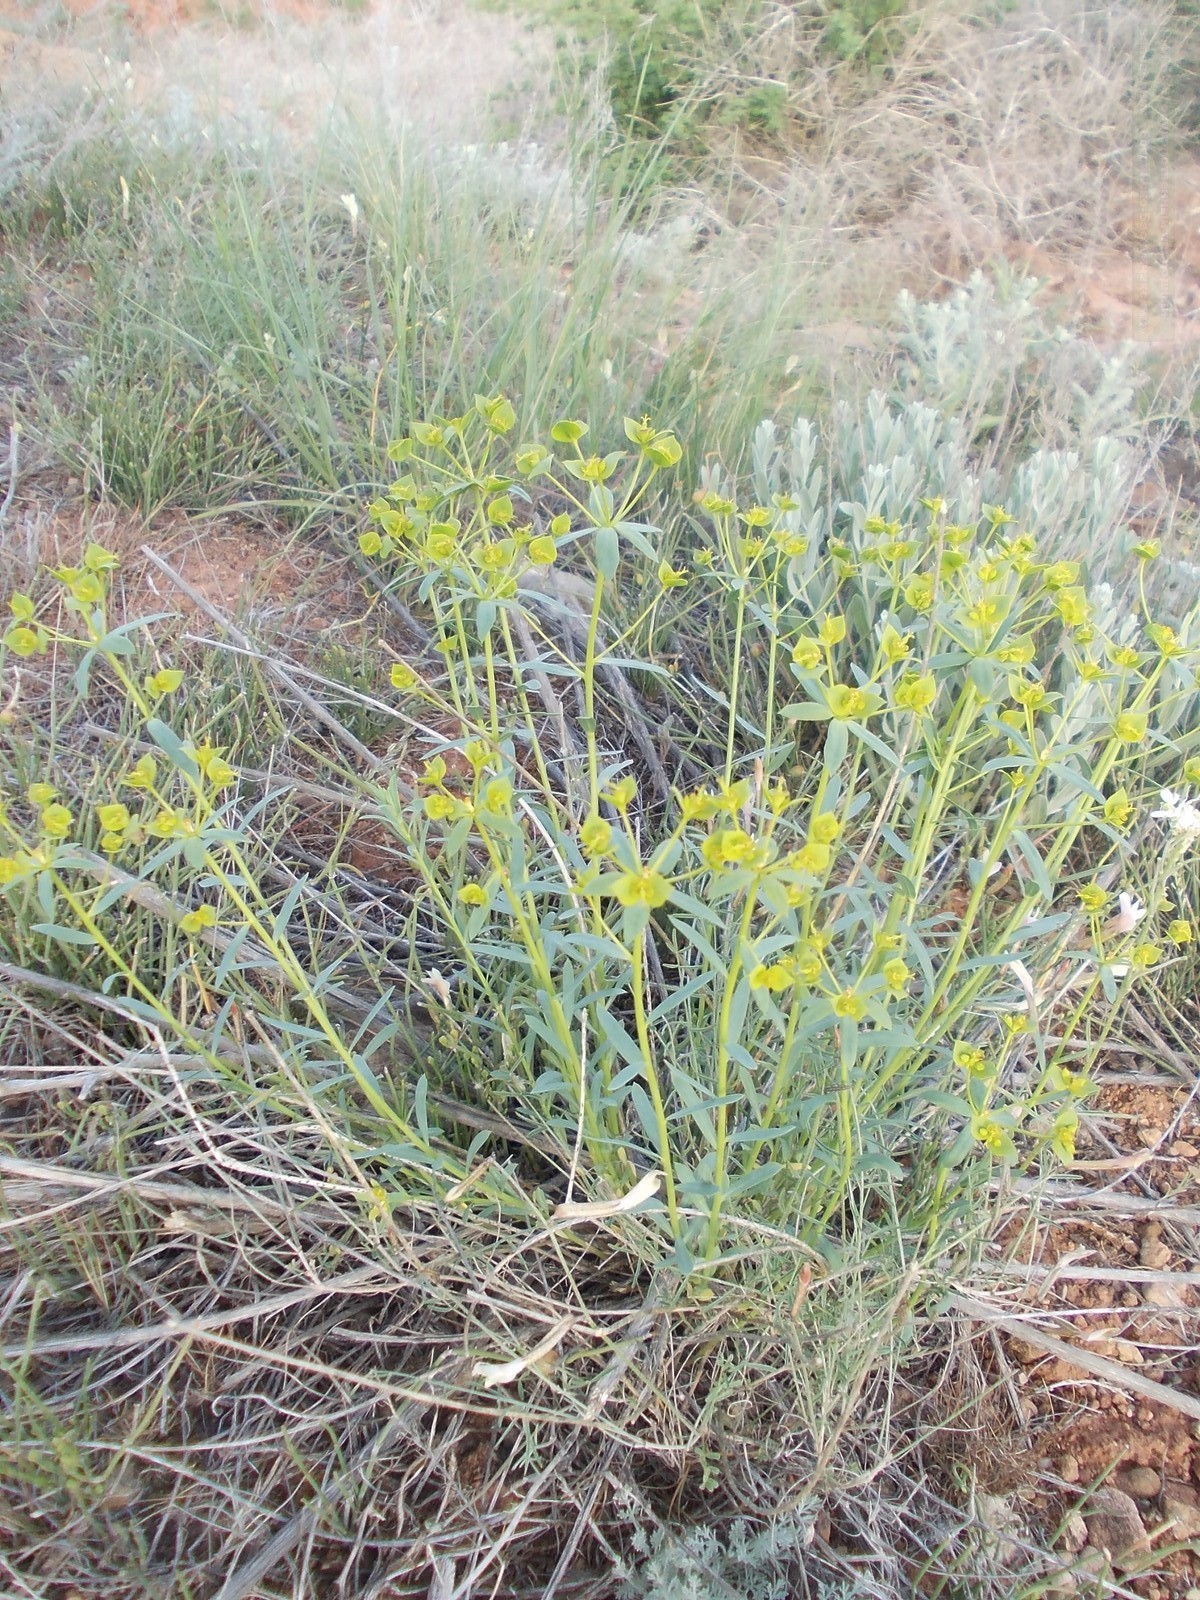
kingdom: Plantae
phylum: Tracheophyta
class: Magnoliopsida
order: Malpighiales
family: Euphorbiaceae
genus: Euphorbia
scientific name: Euphorbia seguieriana
